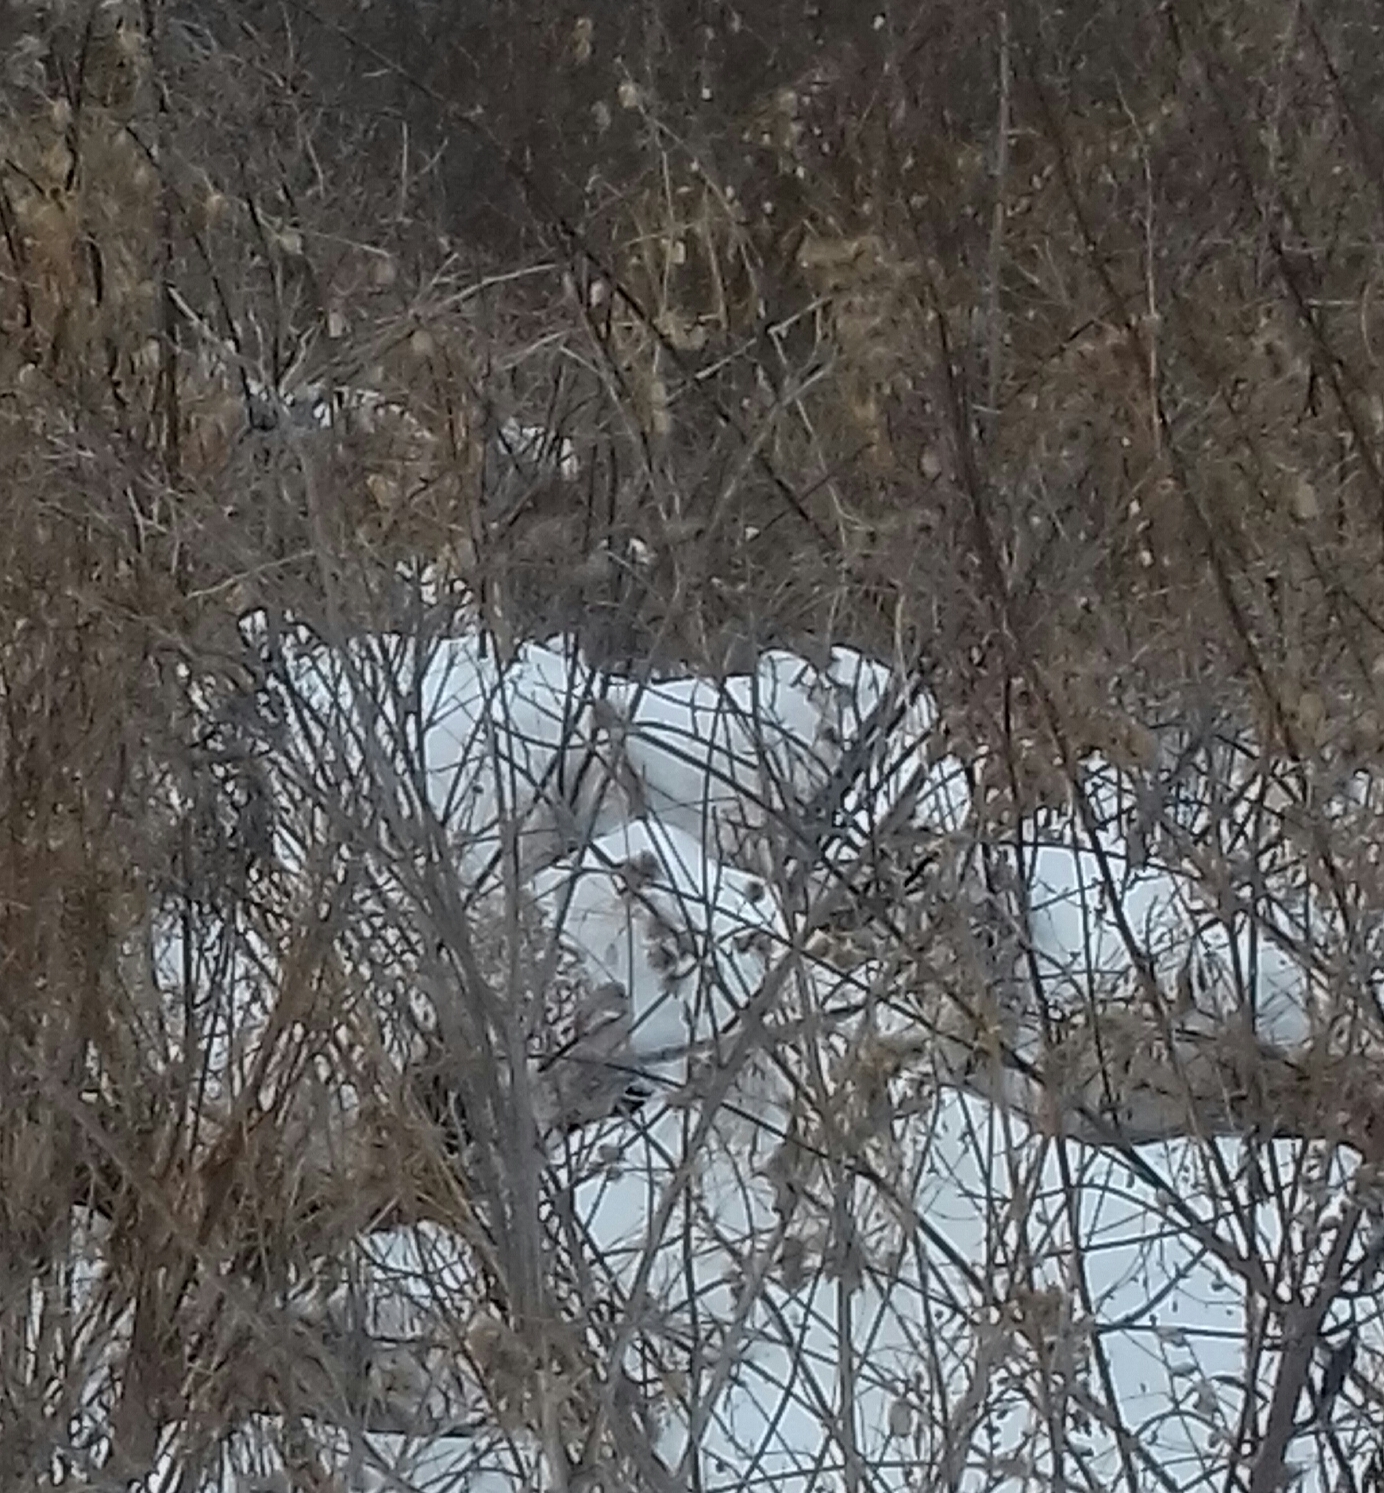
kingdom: Animalia
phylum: Chordata
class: Aves
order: Passeriformes
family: Fringillidae
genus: Carpodacus
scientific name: Carpodacus sibiricus
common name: Long-tailed rosefinch
